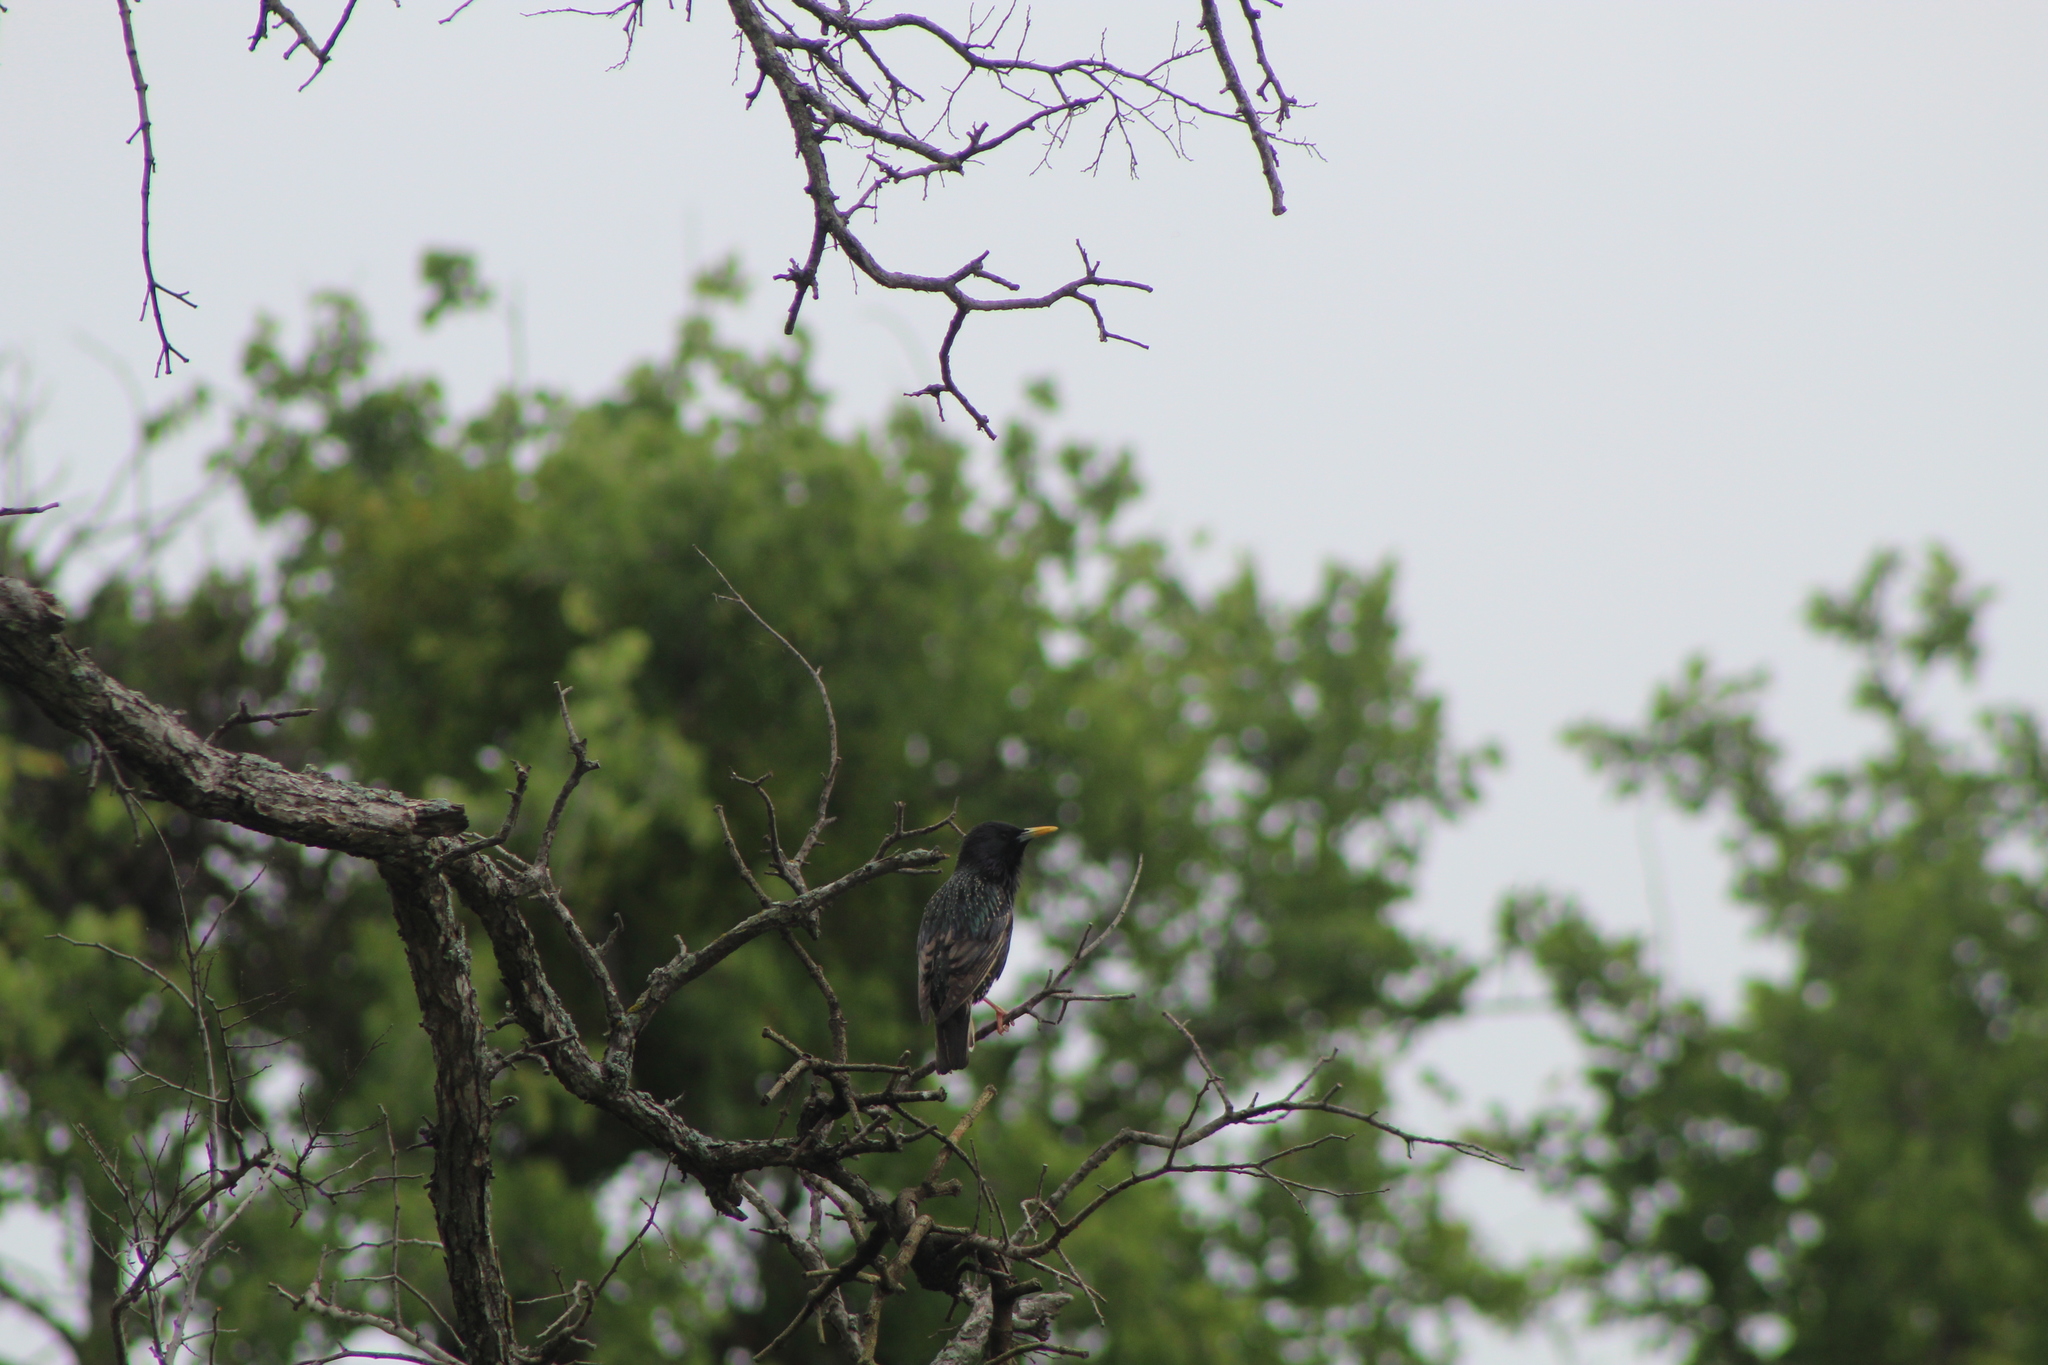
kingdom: Animalia
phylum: Chordata
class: Aves
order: Passeriformes
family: Sturnidae
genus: Sturnus
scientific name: Sturnus vulgaris
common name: Common starling
